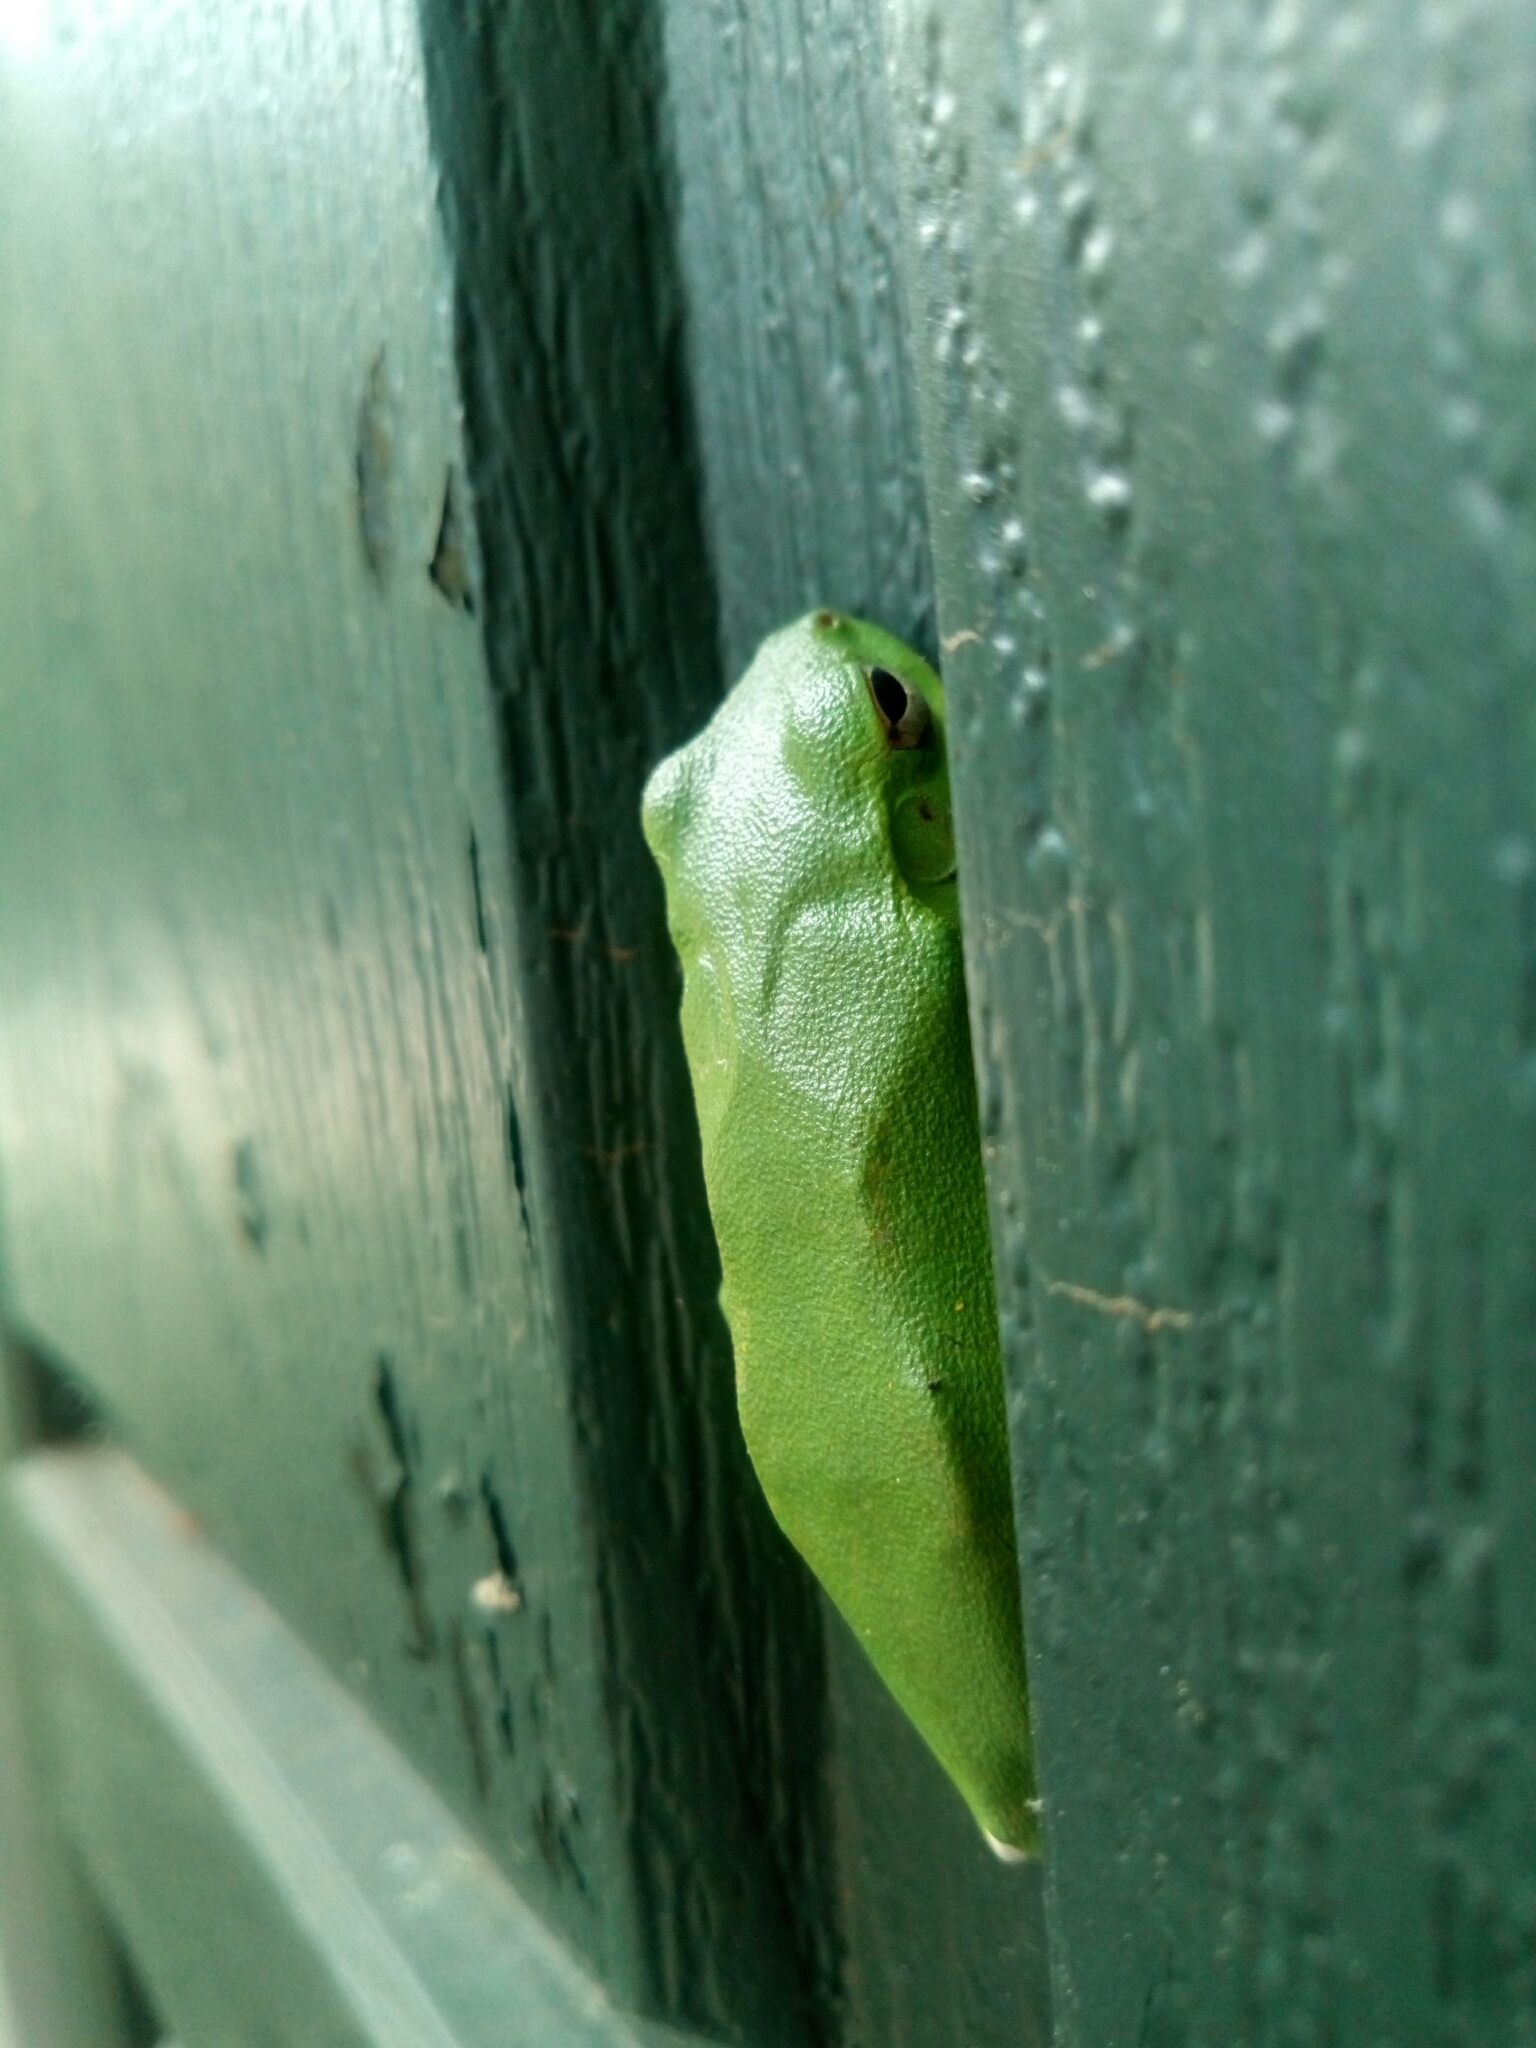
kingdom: Animalia
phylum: Chordata
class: Amphibia
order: Anura
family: Hylidae
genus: Dryophytes
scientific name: Dryophytes cinereus
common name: Green treefrog
